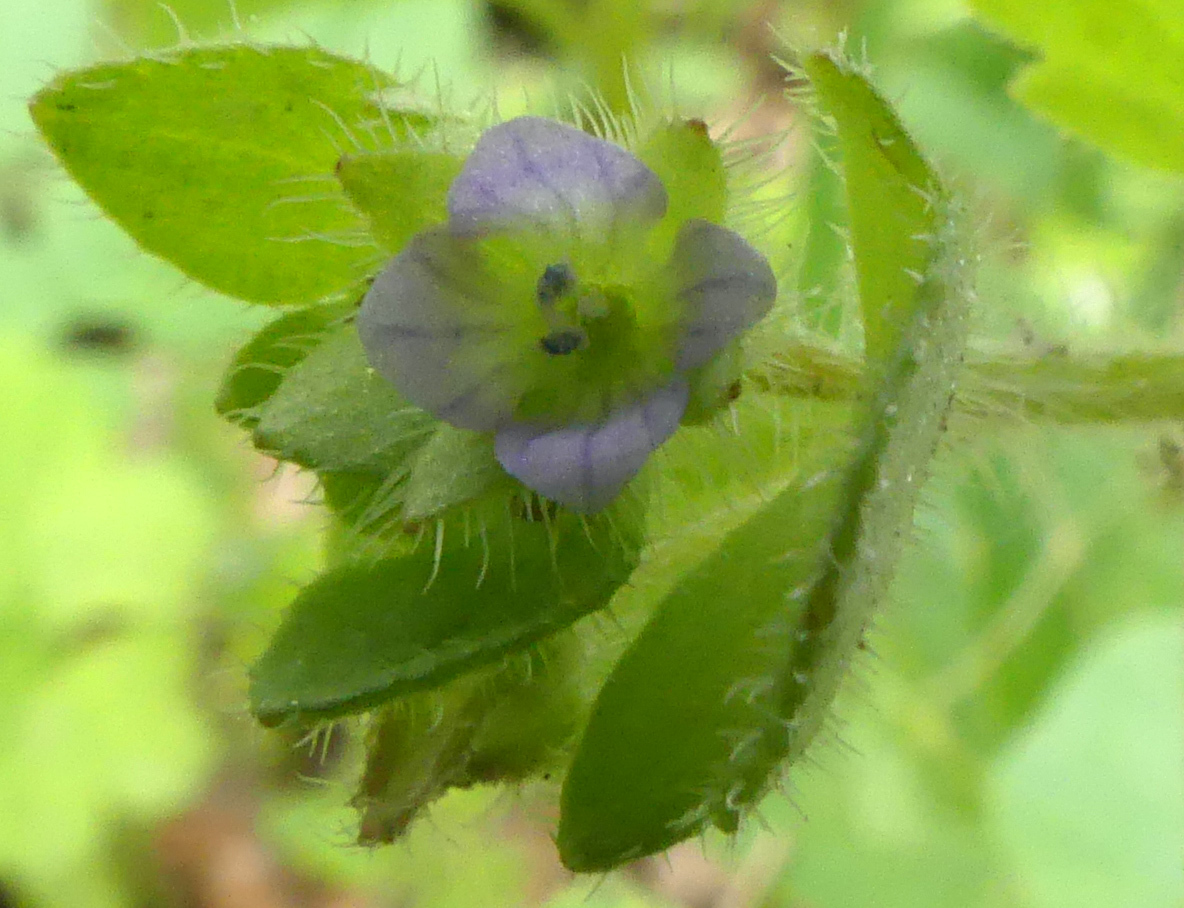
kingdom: Plantae
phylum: Tracheophyta
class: Magnoliopsida
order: Lamiales
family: Plantaginaceae
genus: Veronica
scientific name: Veronica sublobata
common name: False ivy-leaved speedwell
